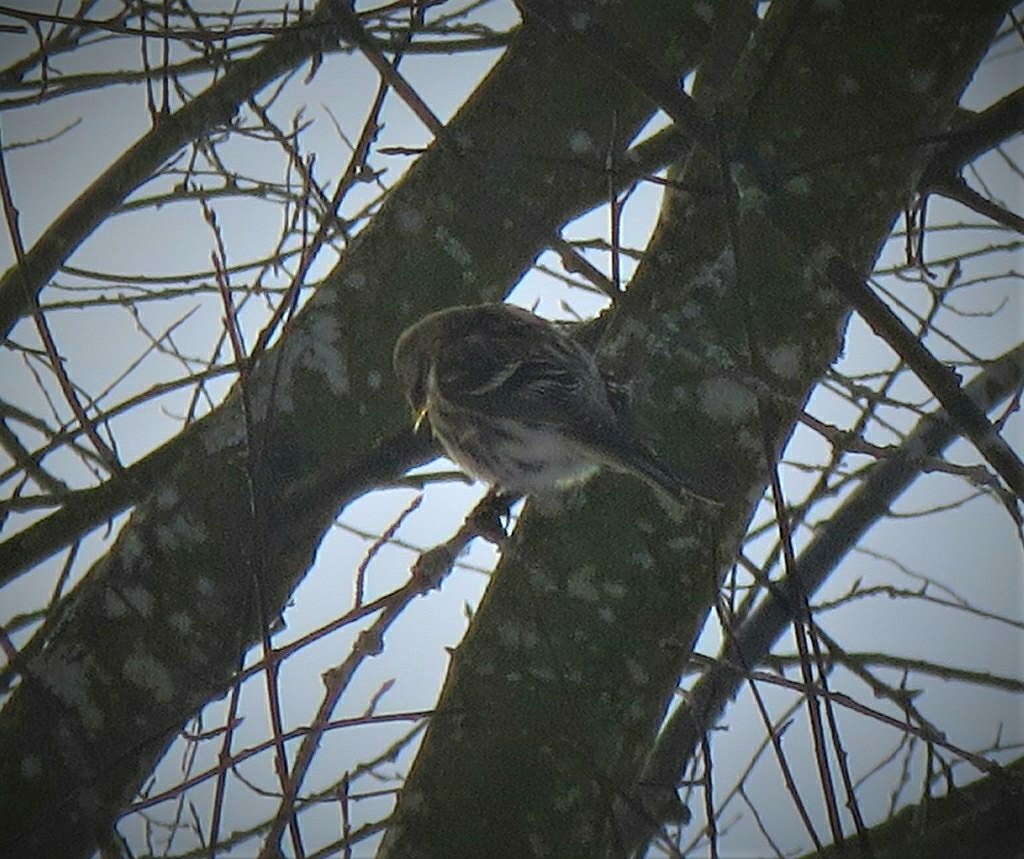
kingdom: Animalia
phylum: Chordata
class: Aves
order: Passeriformes
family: Fringillidae
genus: Acanthis
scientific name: Acanthis flammea
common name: Common redpoll
